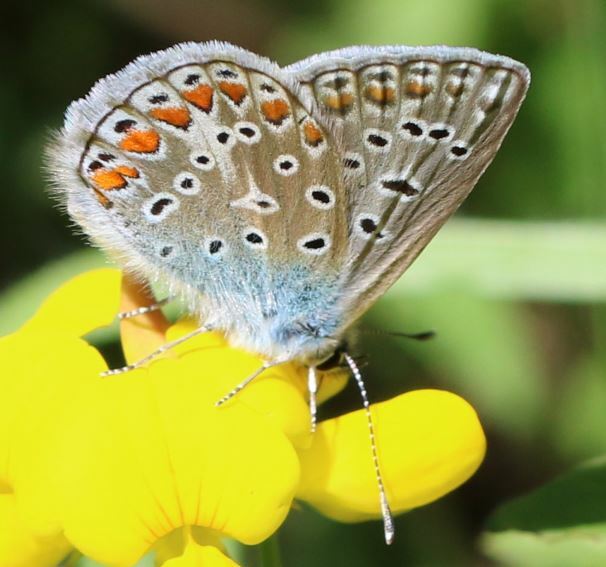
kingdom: Animalia
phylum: Arthropoda
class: Insecta
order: Lepidoptera
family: Lycaenidae
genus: Polyommatus
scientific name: Polyommatus icarus
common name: Common blue
